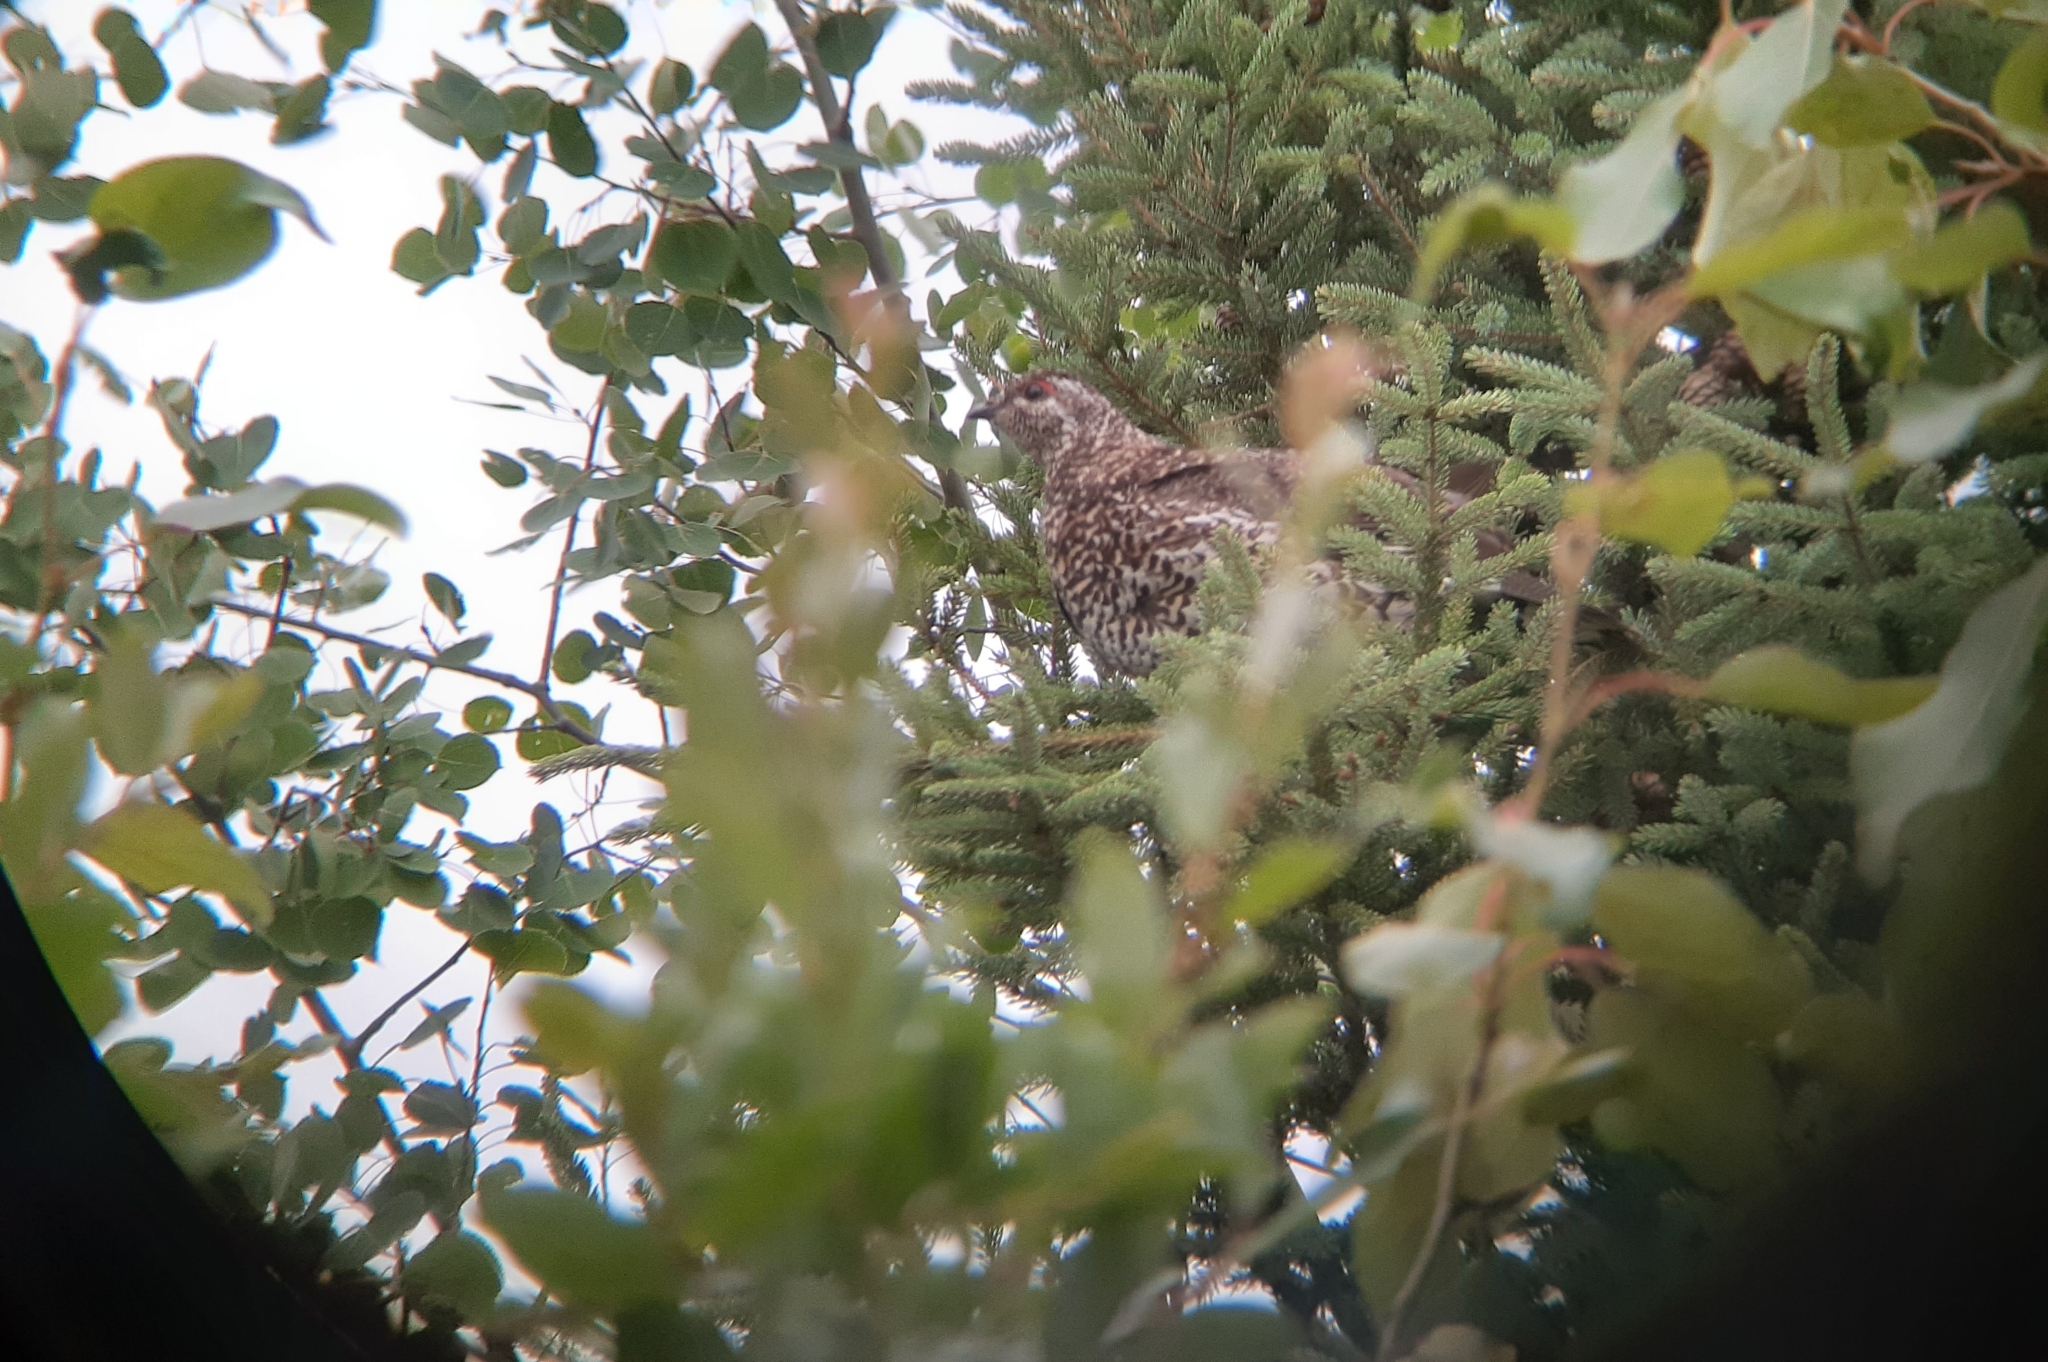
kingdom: Animalia
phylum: Chordata
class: Aves
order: Galliformes
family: Phasianidae
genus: Canachites
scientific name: Canachites canadensis
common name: Spruce grouse
